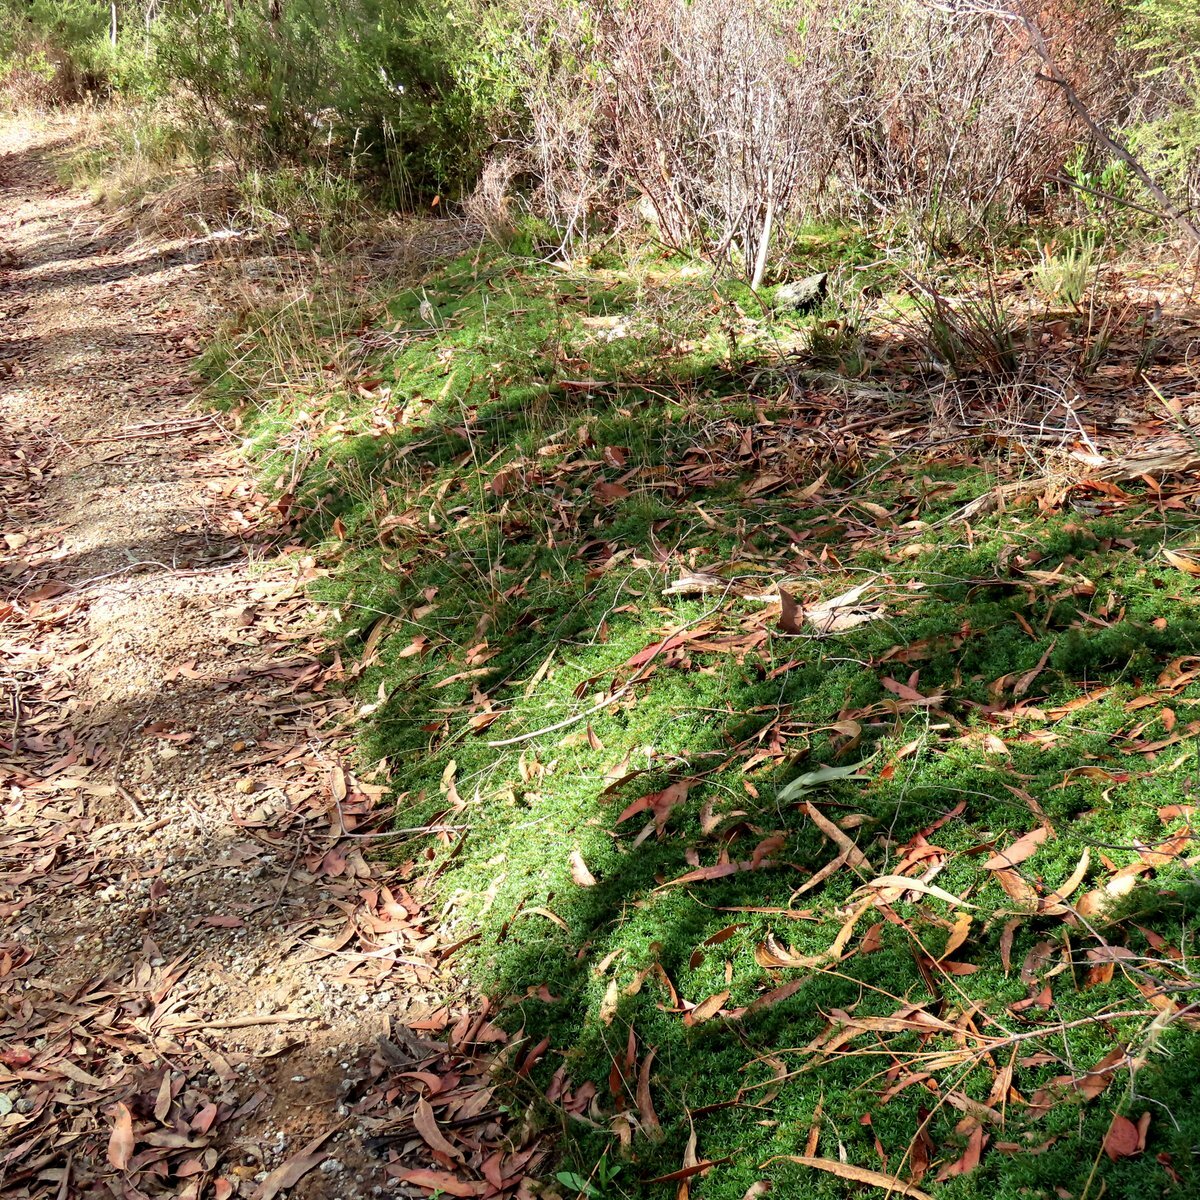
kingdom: Plantae
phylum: Tracheophyta
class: Magnoliopsida
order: Fabales
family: Fabaceae
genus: Pultenaea
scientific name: Pultenaea pedunculata
